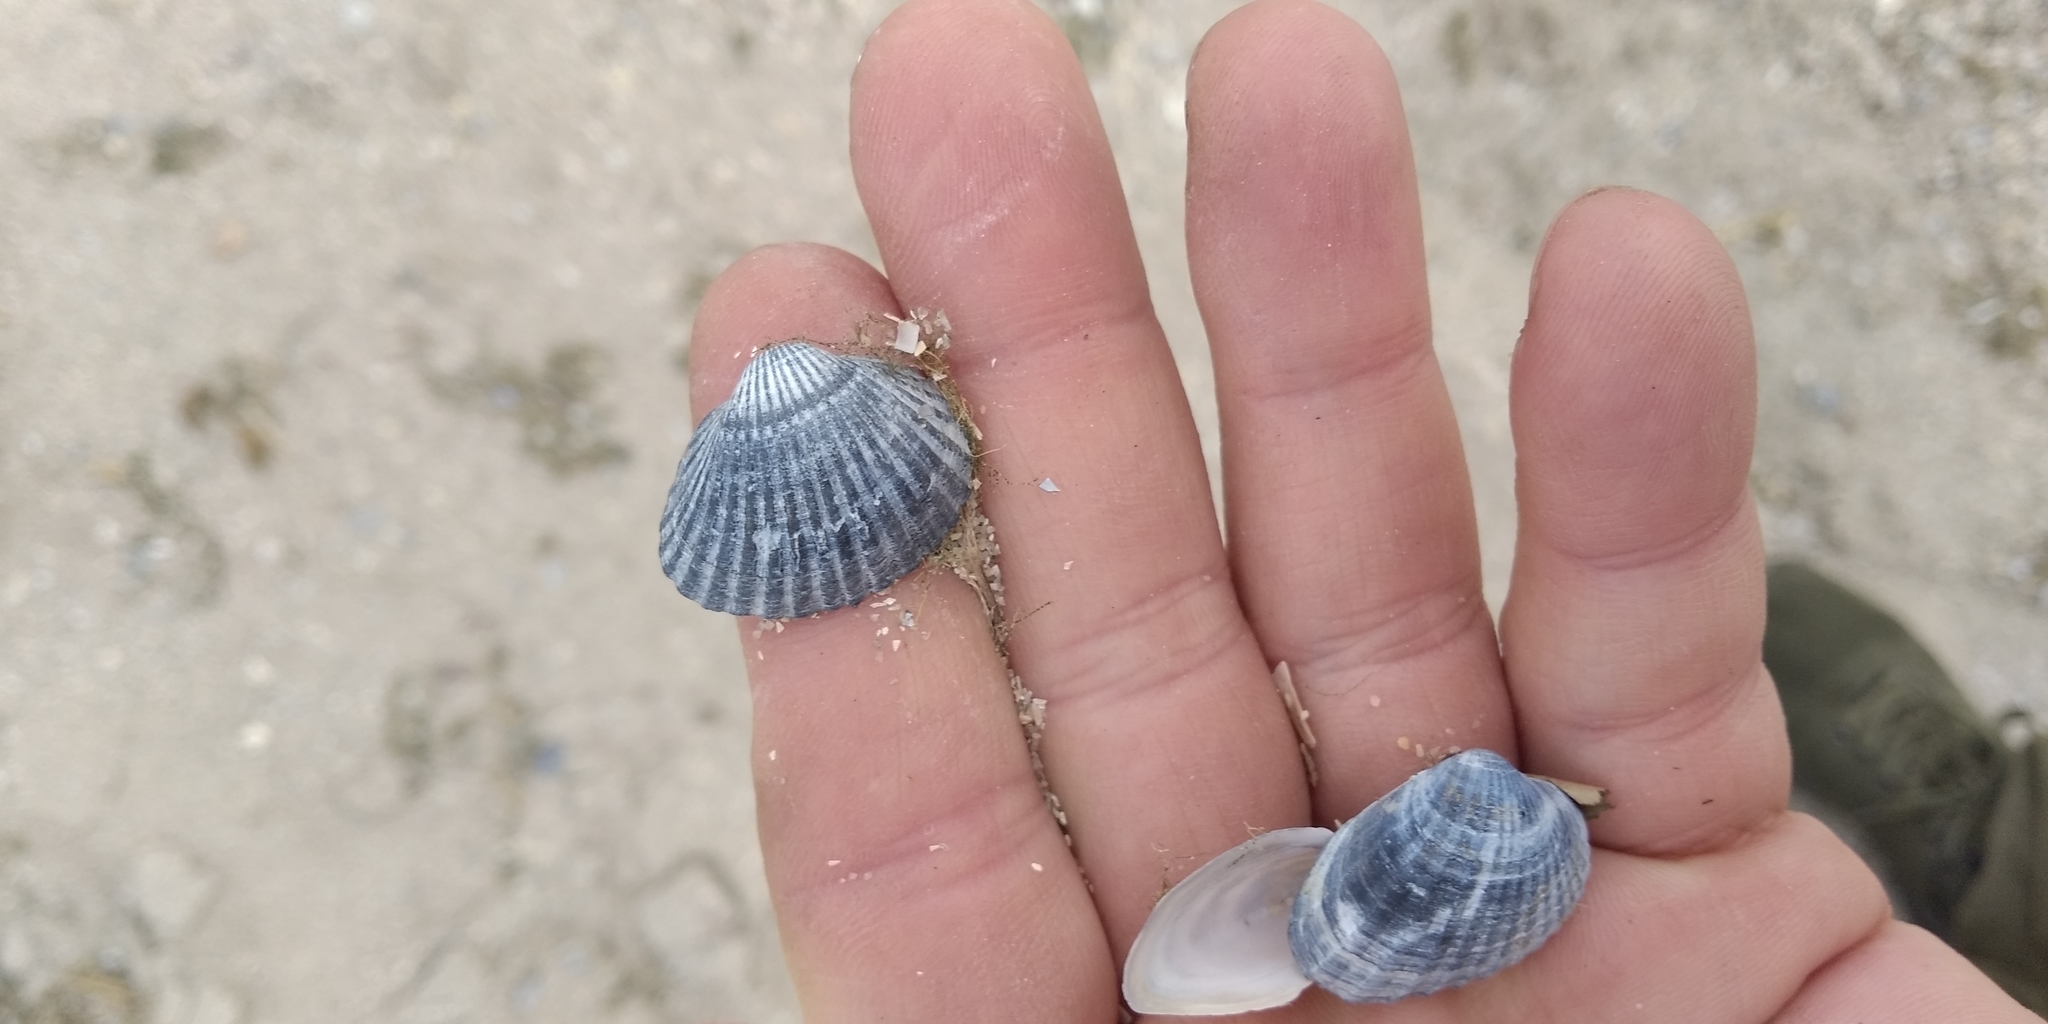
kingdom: Animalia
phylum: Mollusca
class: Bivalvia
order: Cardiida
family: Cardiidae
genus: Cerastoderma
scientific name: Cerastoderma glaucum
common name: Lagoon cockle
